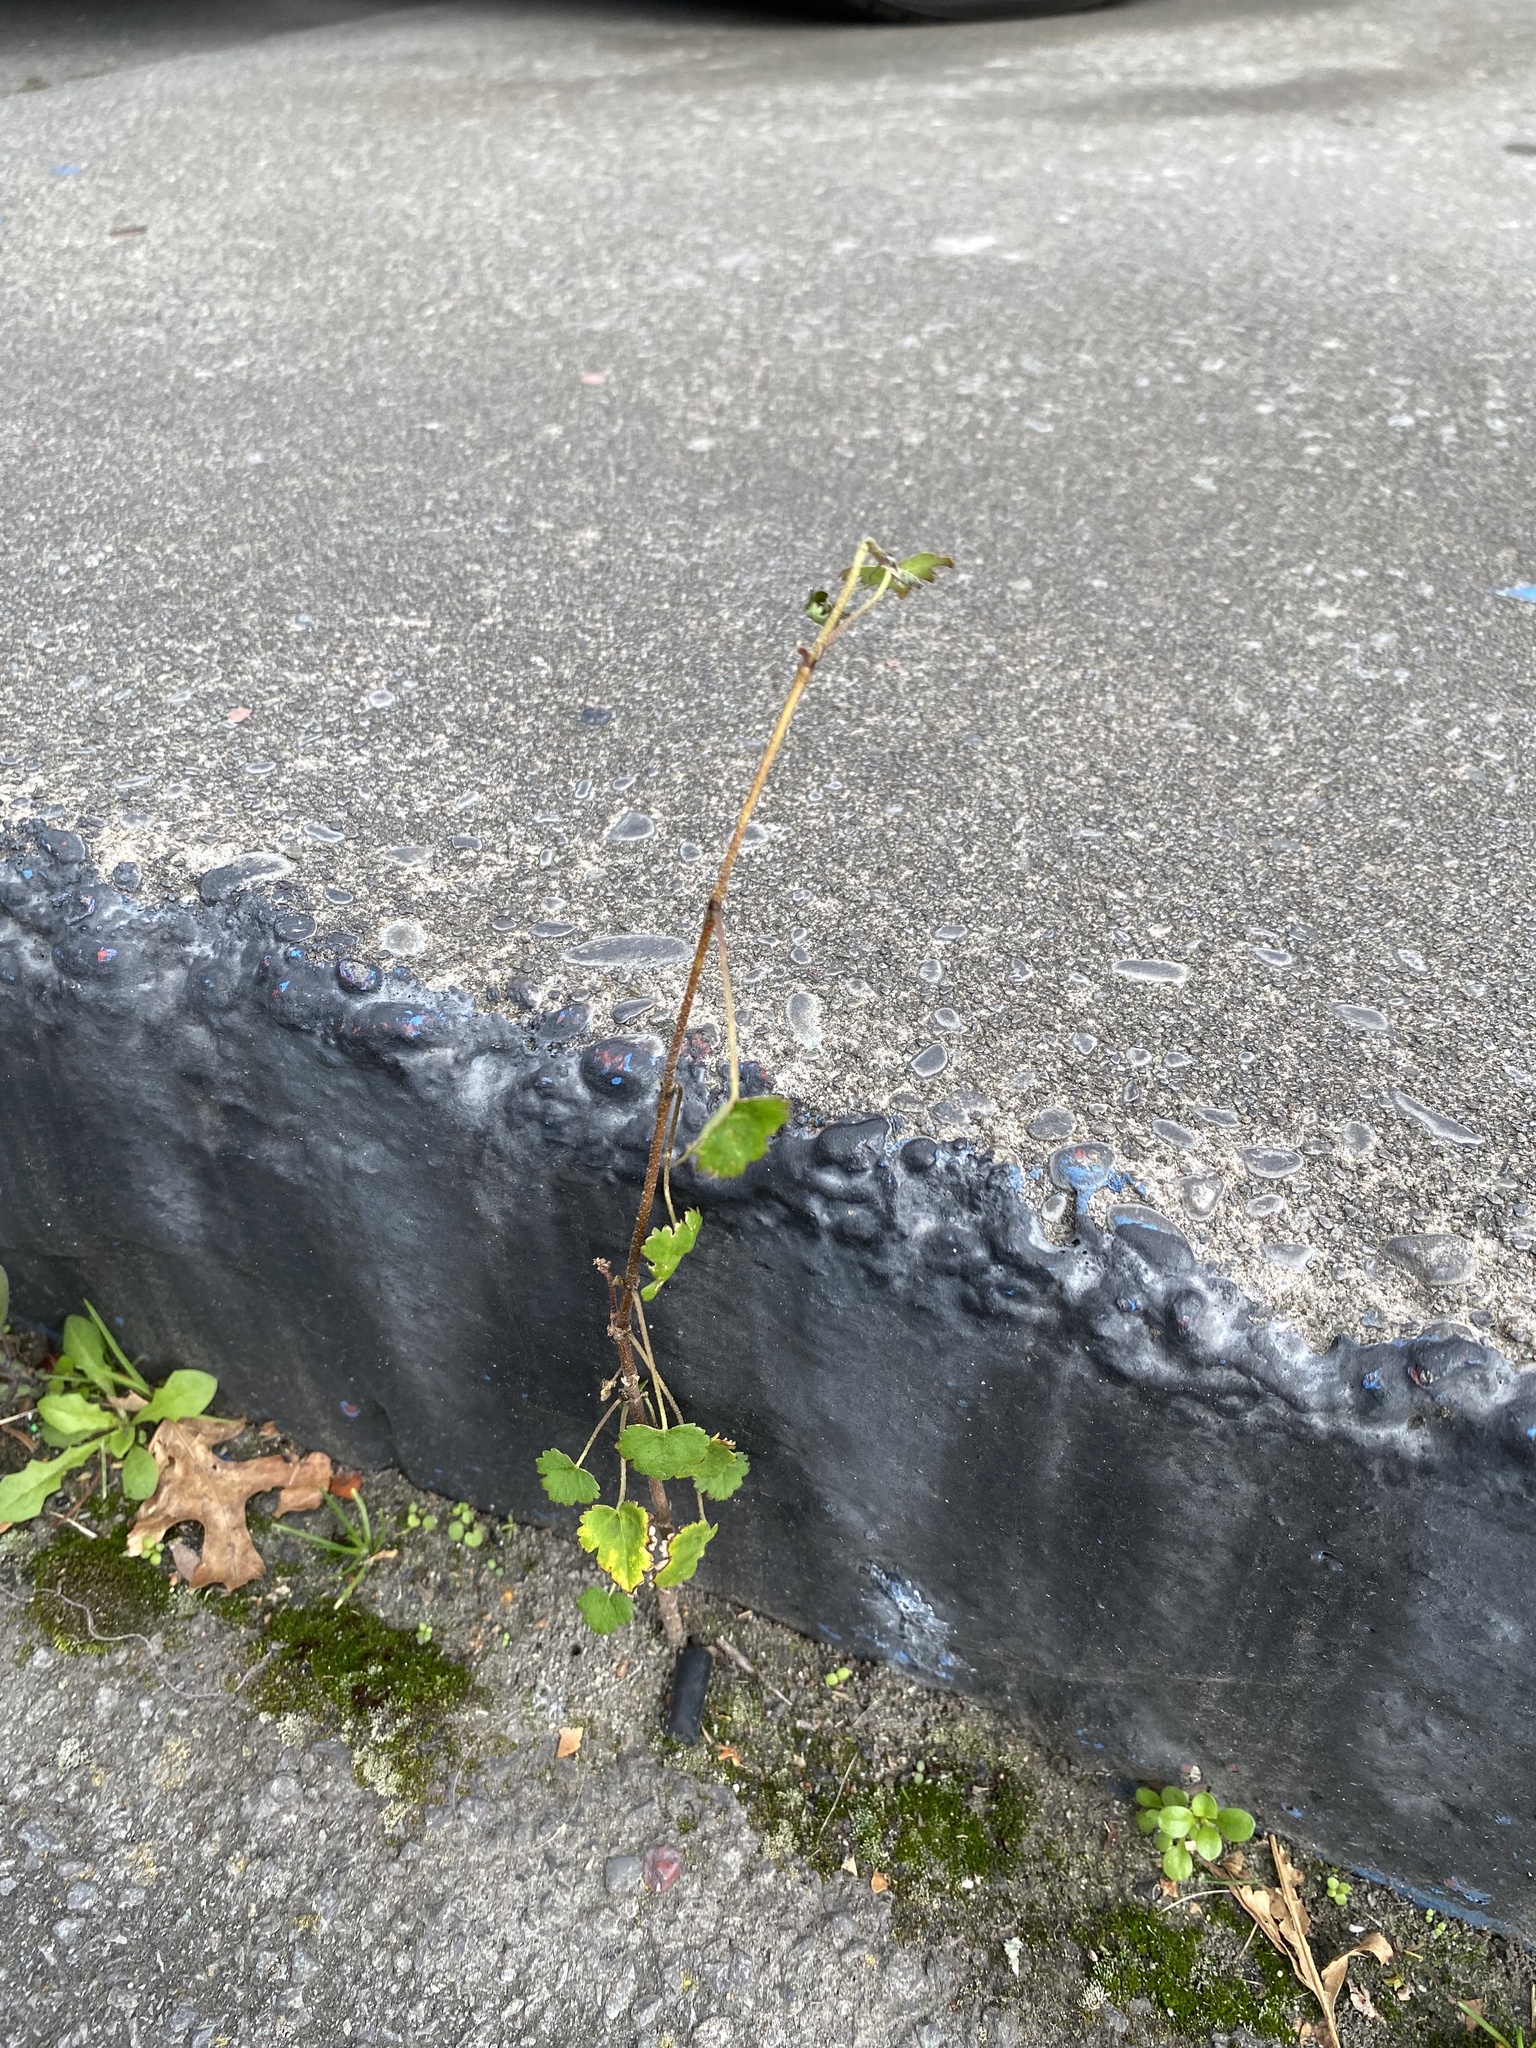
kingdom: Plantae
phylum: Tracheophyta
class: Magnoliopsida
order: Malvales
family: Malvaceae
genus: Plagianthus
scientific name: Plagianthus regius
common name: Manatu
